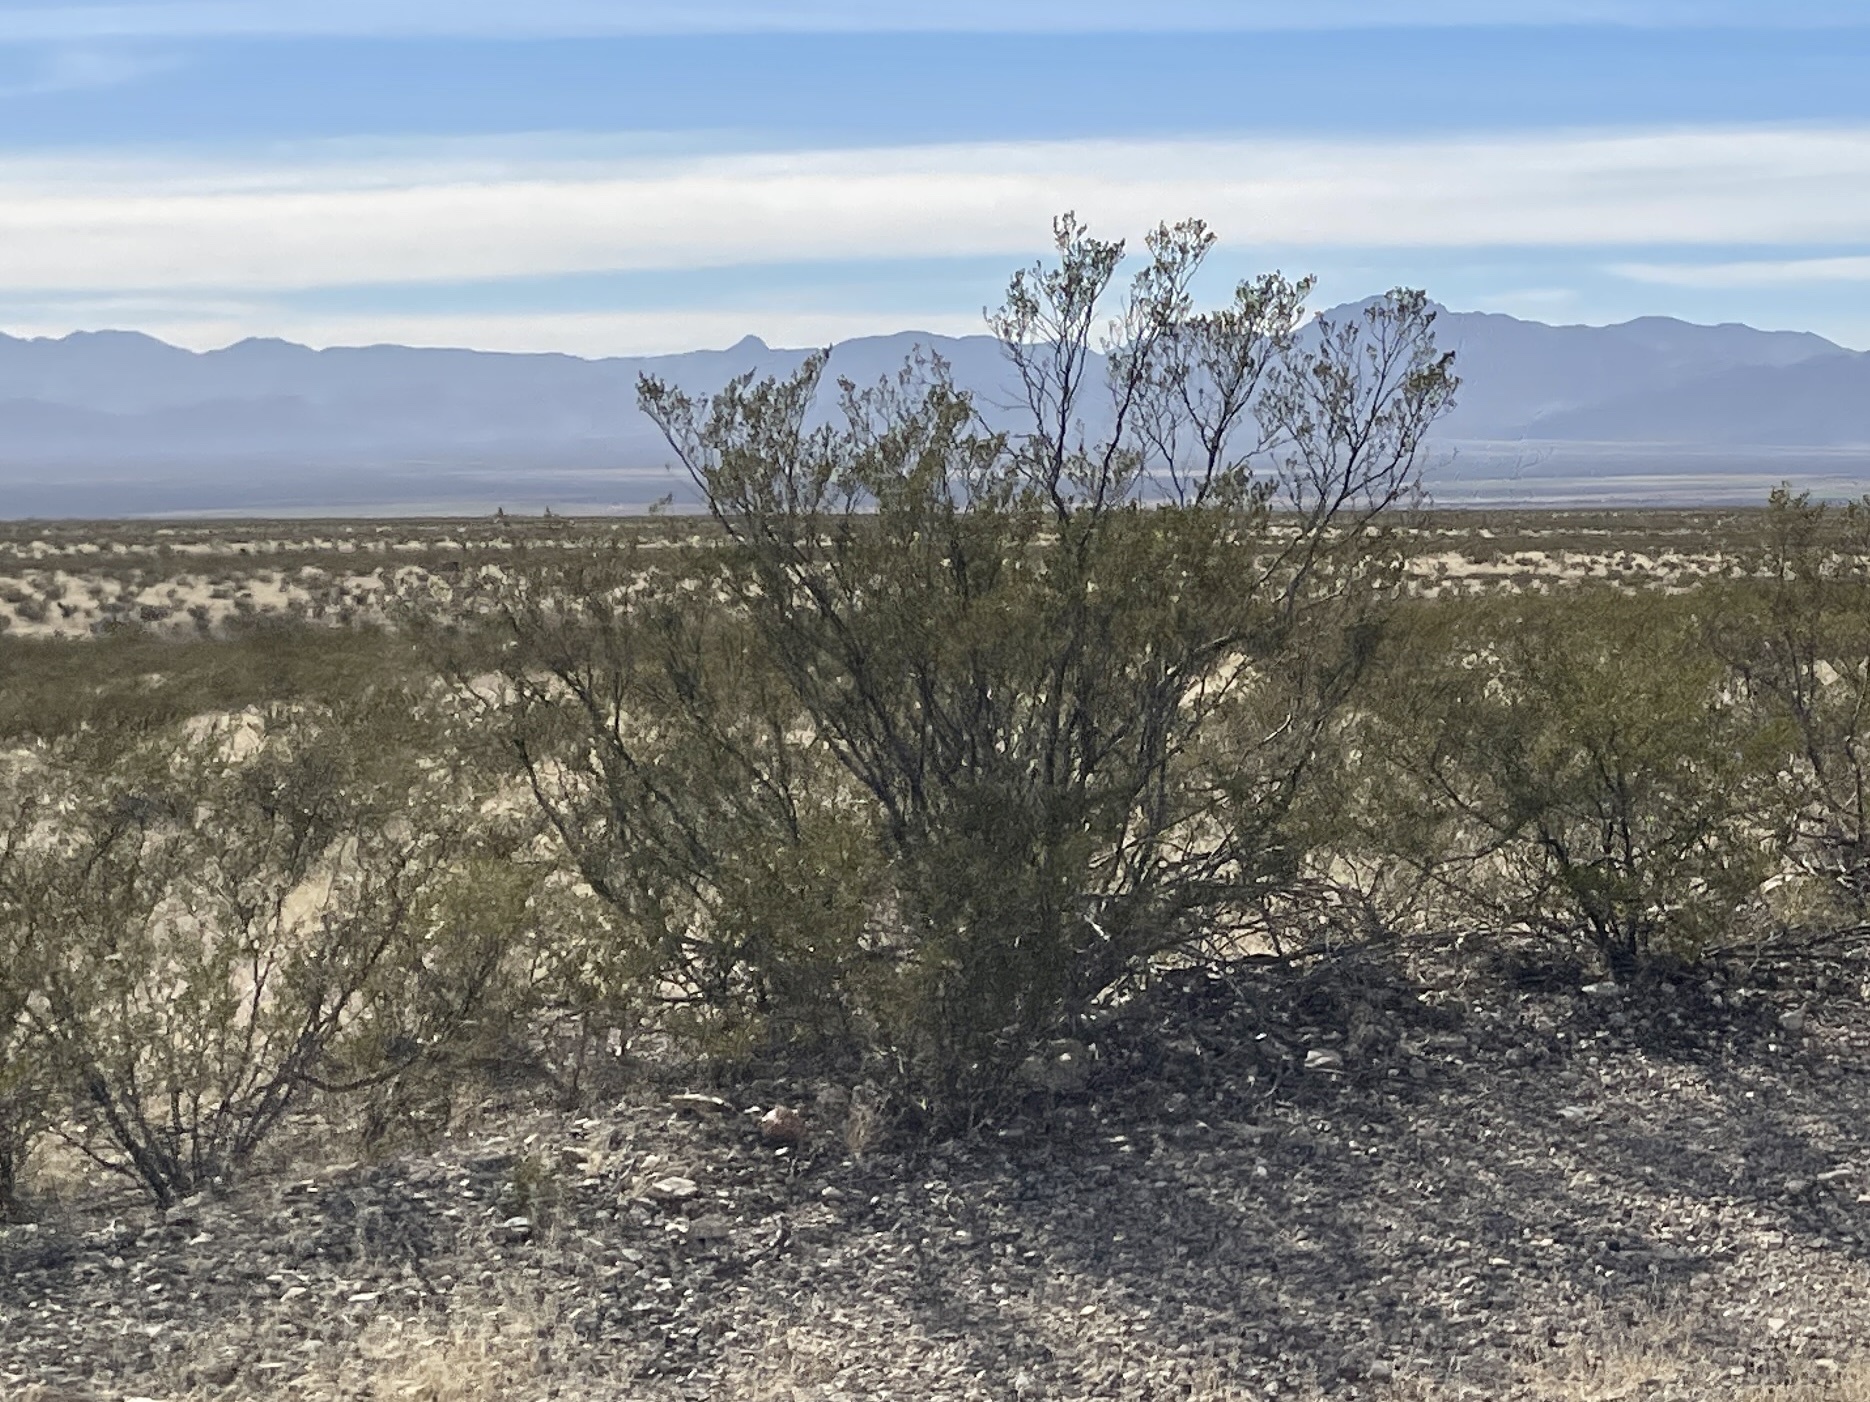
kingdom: Plantae
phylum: Tracheophyta
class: Magnoliopsida
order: Zygophyllales
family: Zygophyllaceae
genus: Larrea
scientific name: Larrea tridentata
